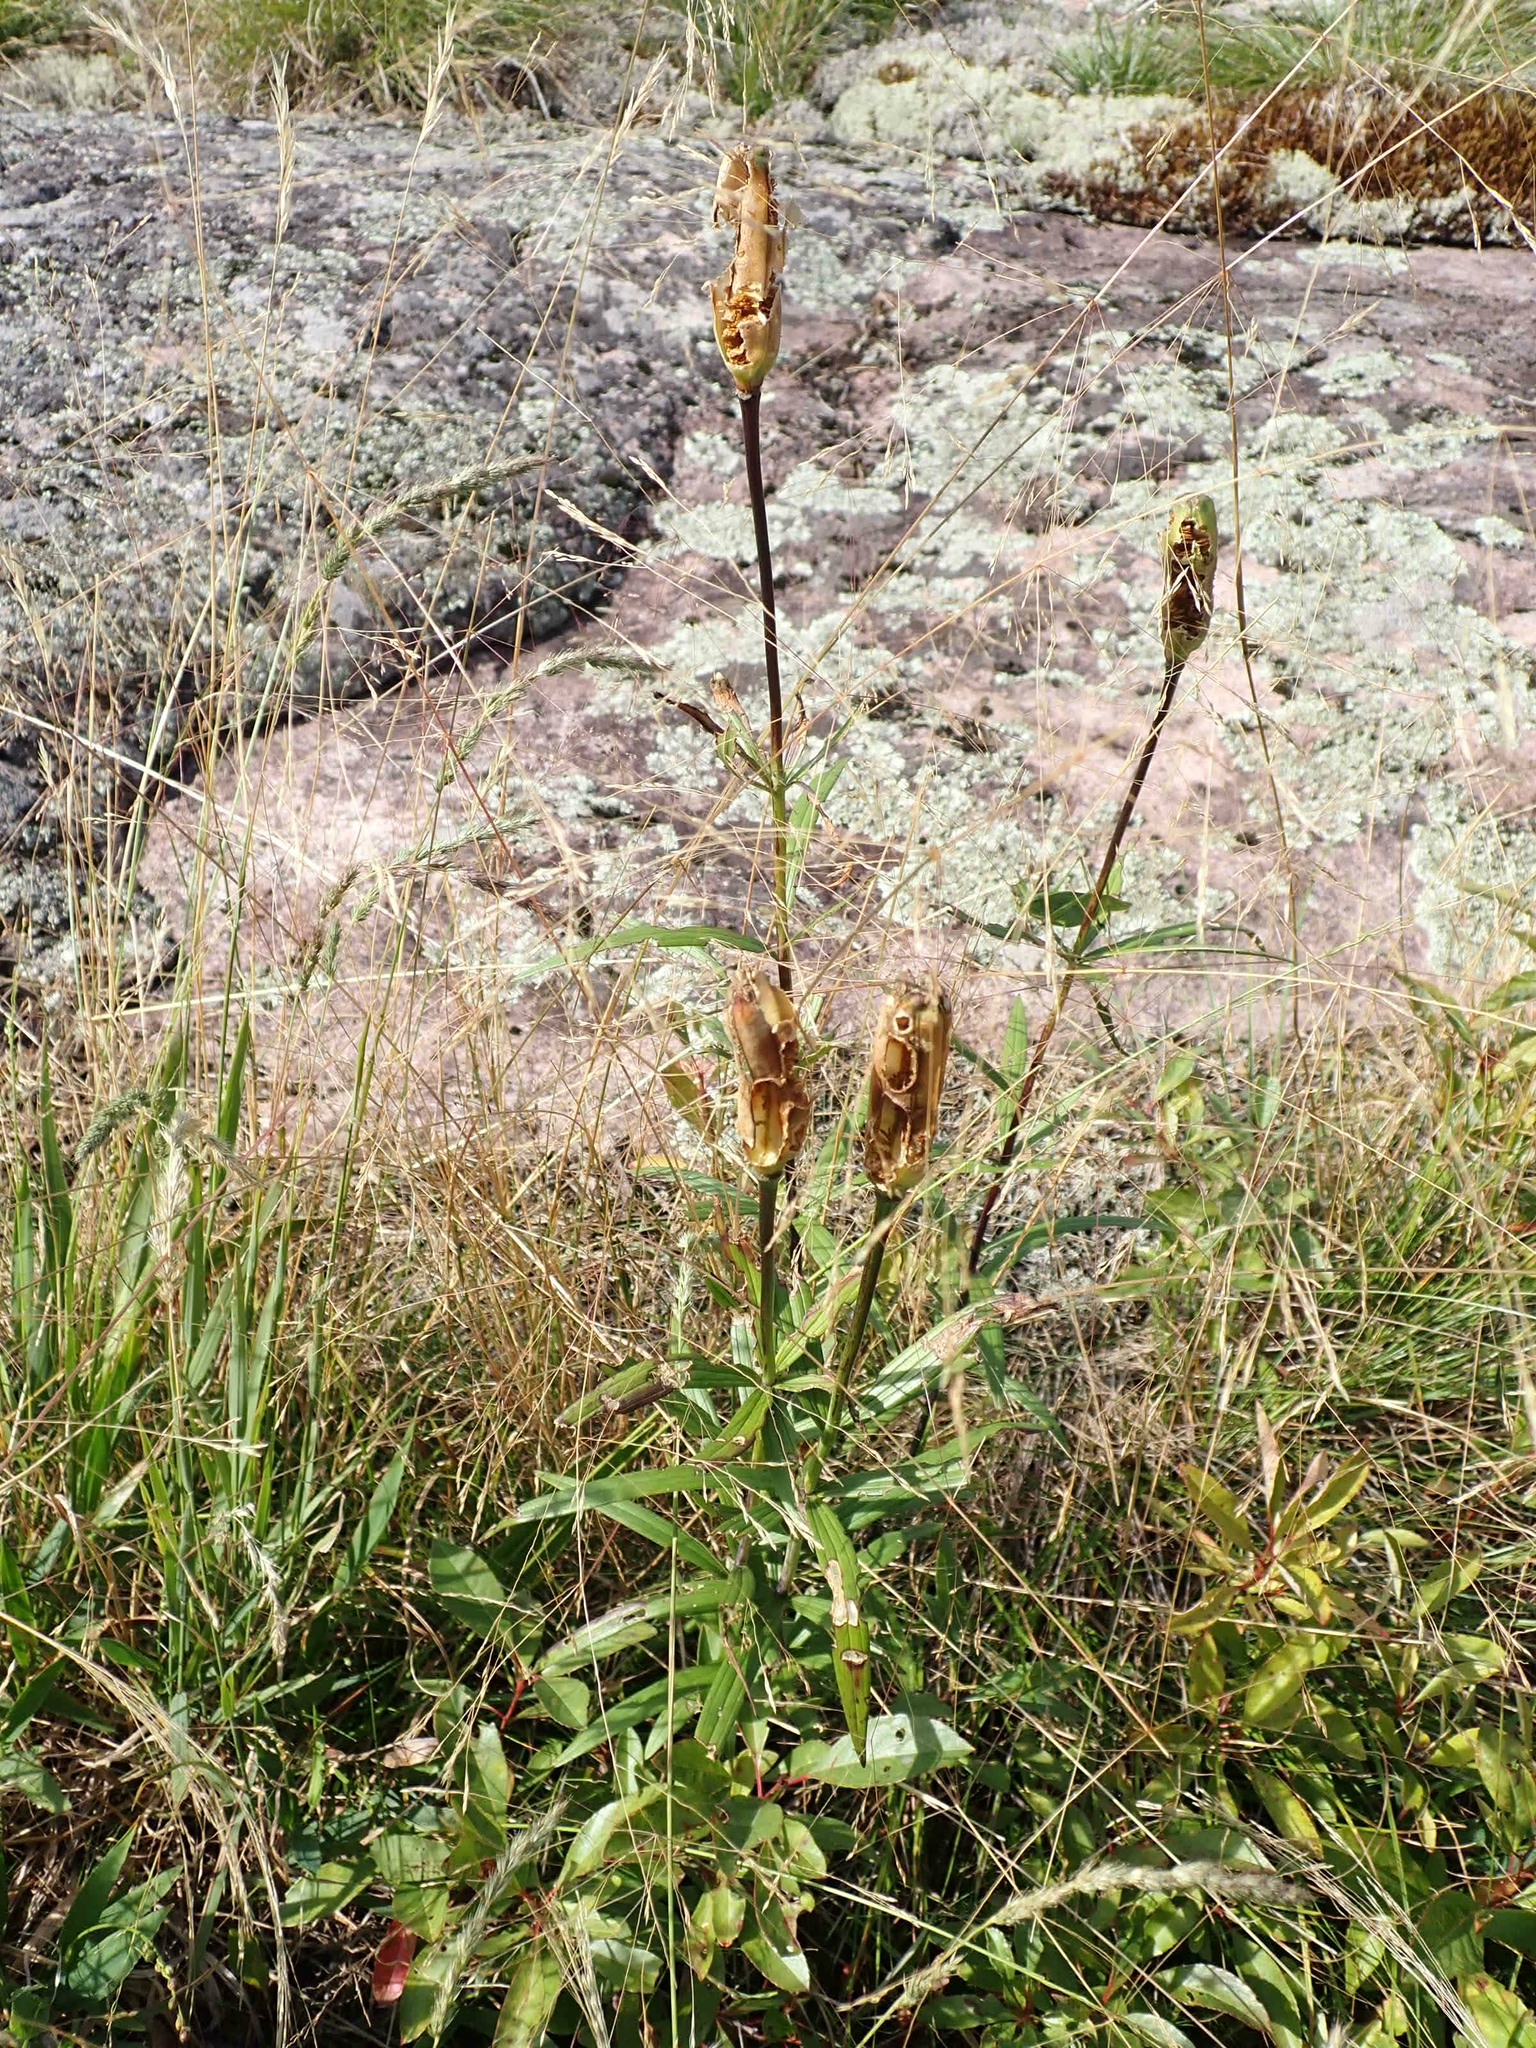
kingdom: Plantae
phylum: Tracheophyta
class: Liliopsida
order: Liliales
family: Liliaceae
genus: Lilium
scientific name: Lilium philadelphicum
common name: Red lily
